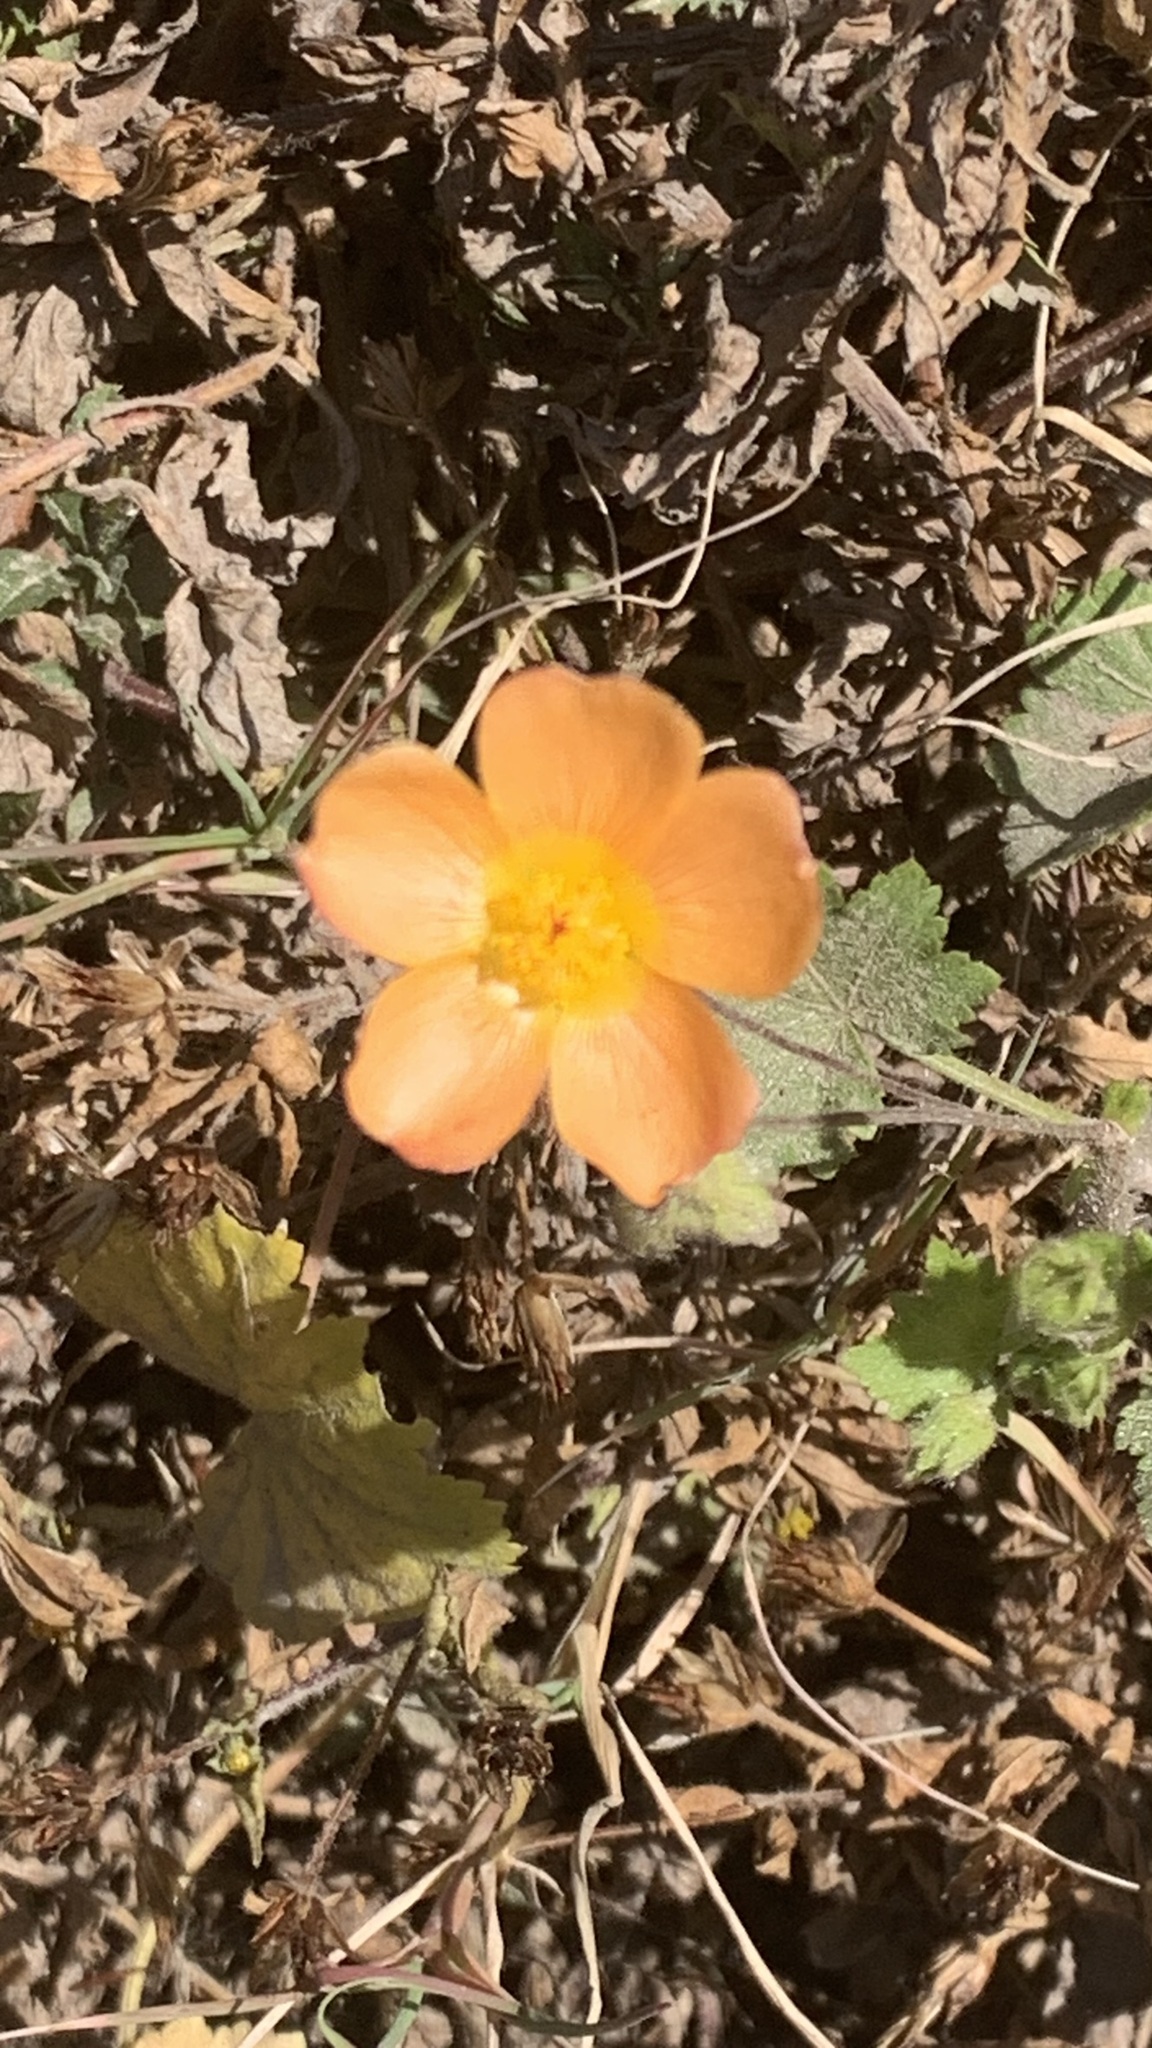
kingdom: Plantae
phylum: Tracheophyta
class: Magnoliopsida
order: Malvales
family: Malvaceae
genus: Modiolastrum
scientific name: Modiolastrum malvifolium
